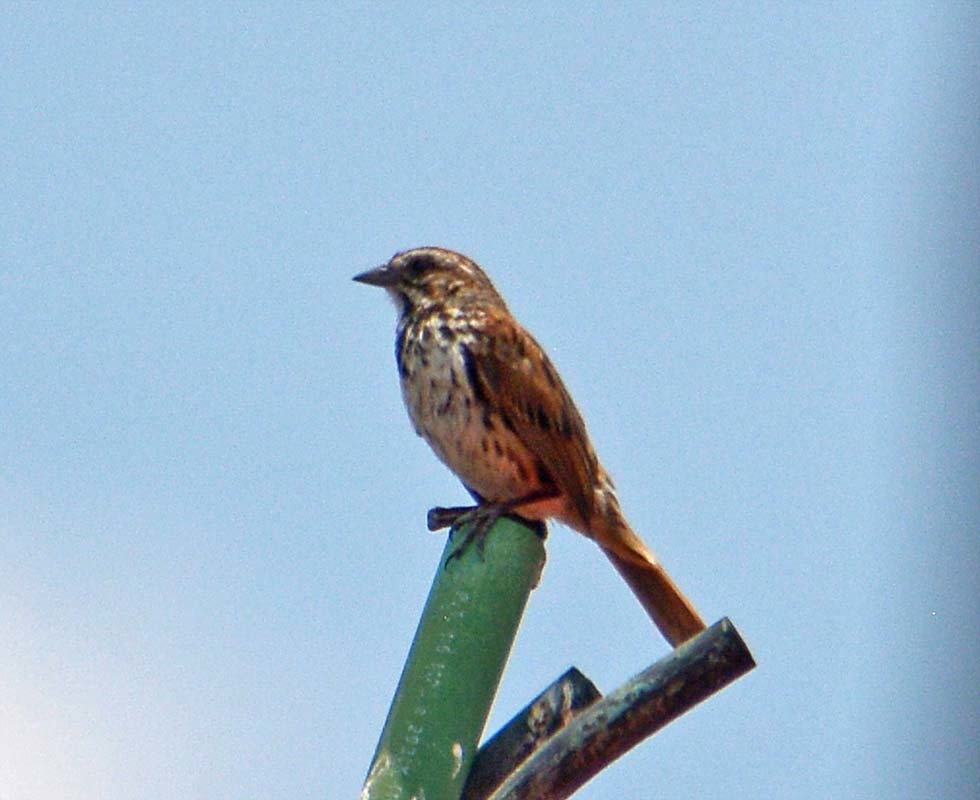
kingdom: Animalia
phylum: Chordata
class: Aves
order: Passeriformes
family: Passerellidae
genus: Melospiza
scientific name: Melospiza melodia
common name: Song sparrow
